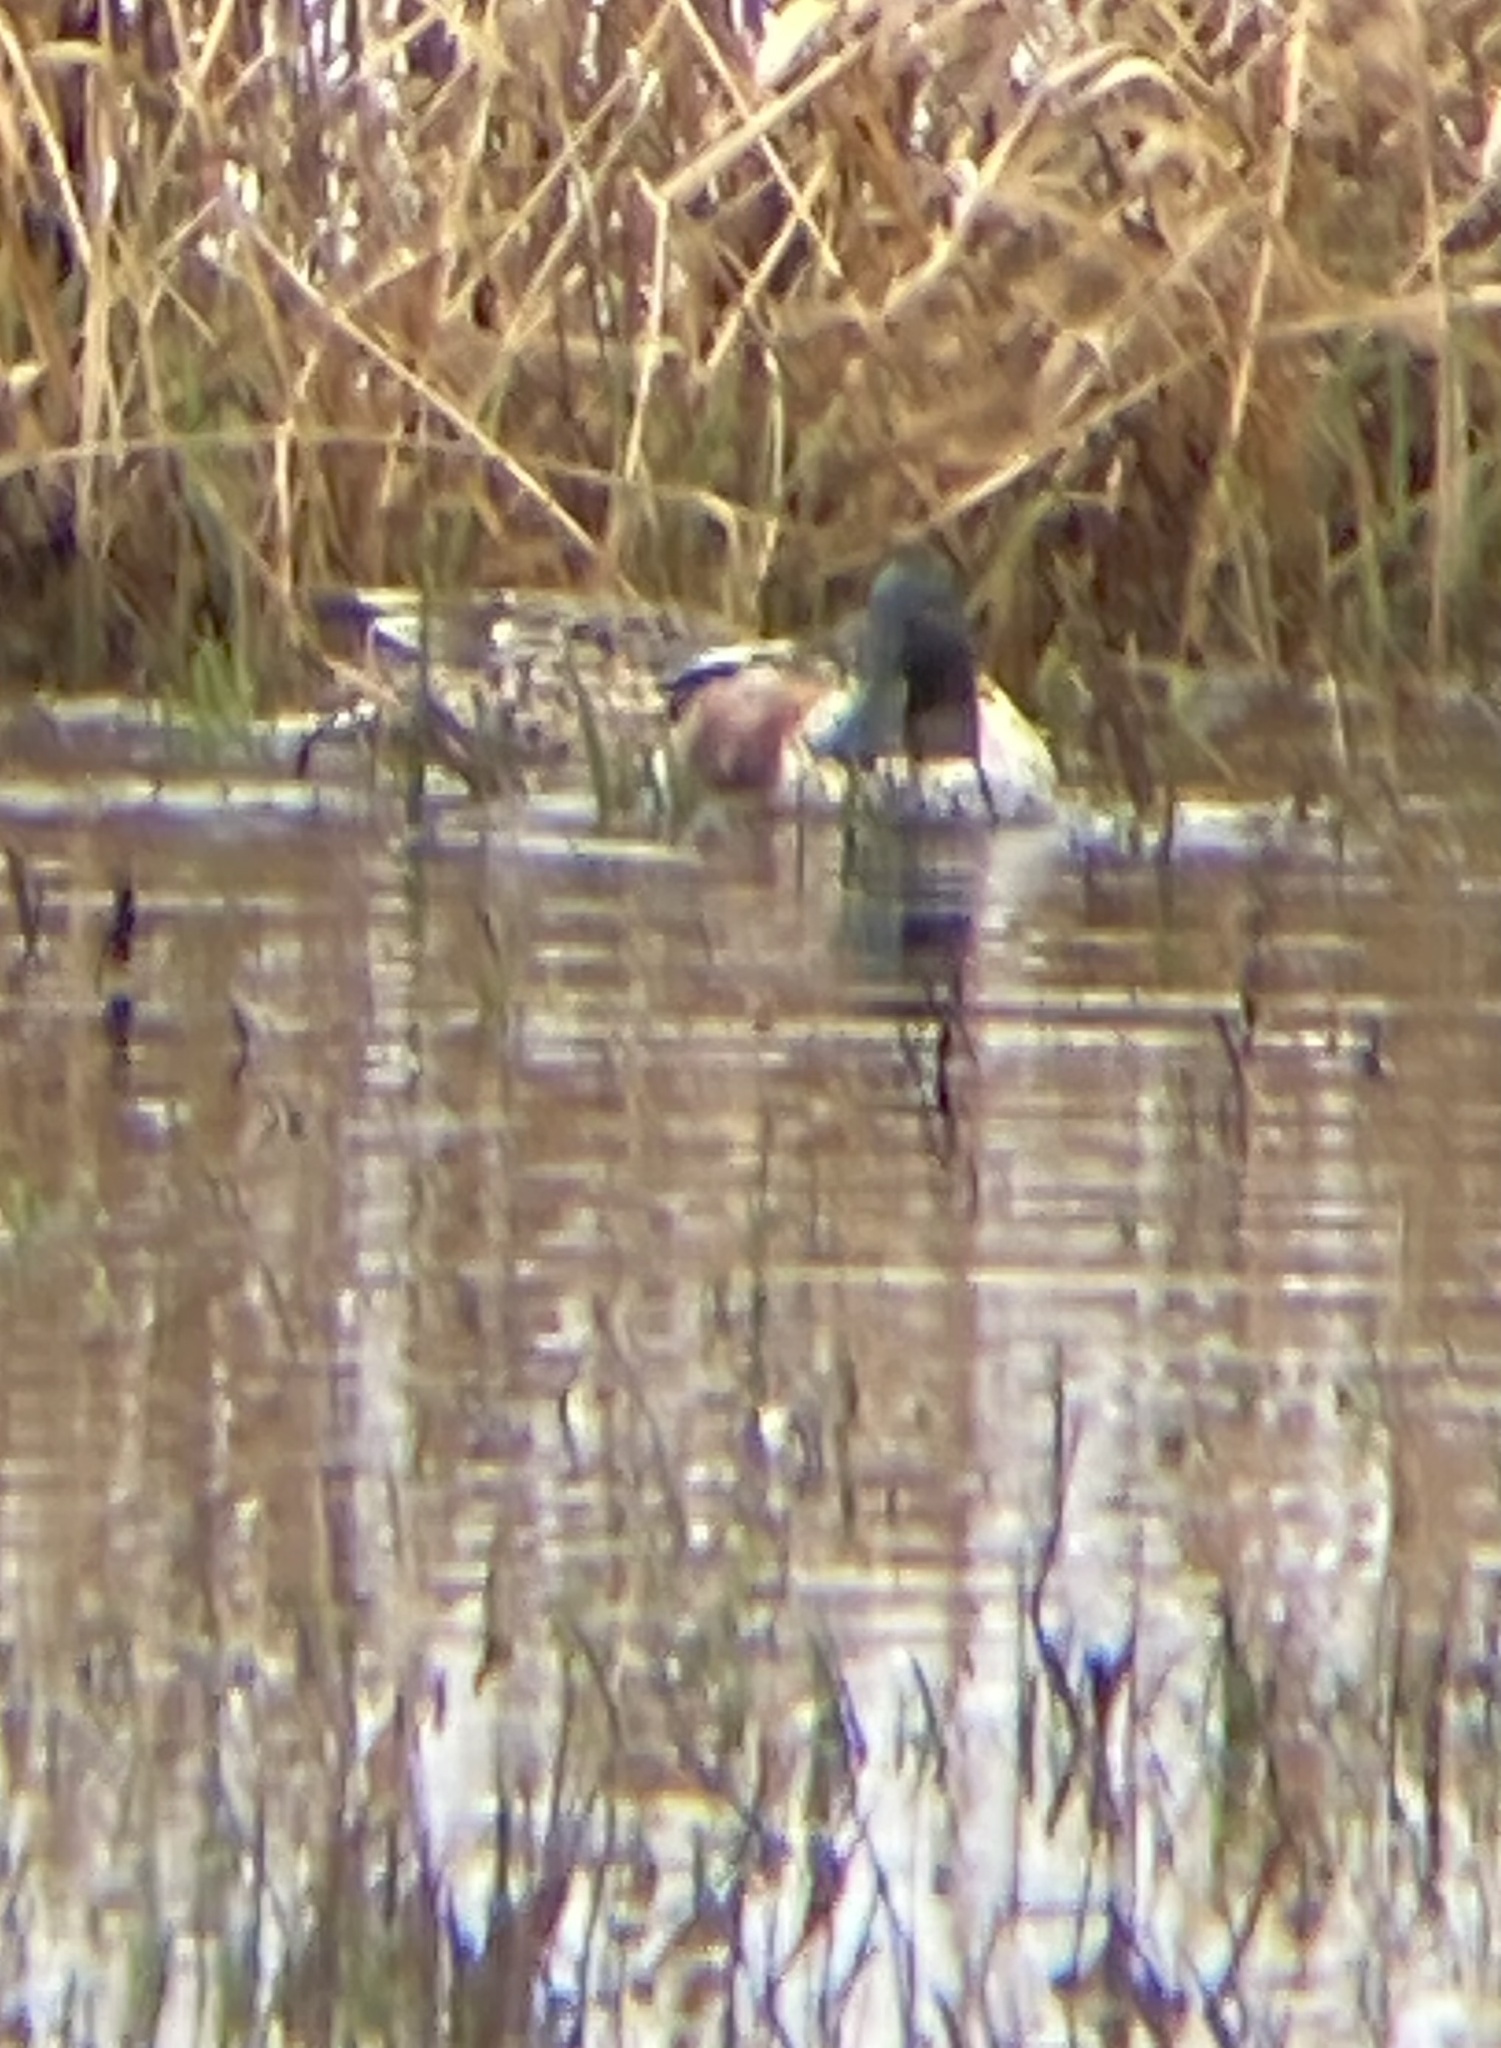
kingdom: Animalia
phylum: Chordata
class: Aves
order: Anseriformes
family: Anatidae
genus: Spatula
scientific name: Spatula clypeata
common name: Northern shoveler
